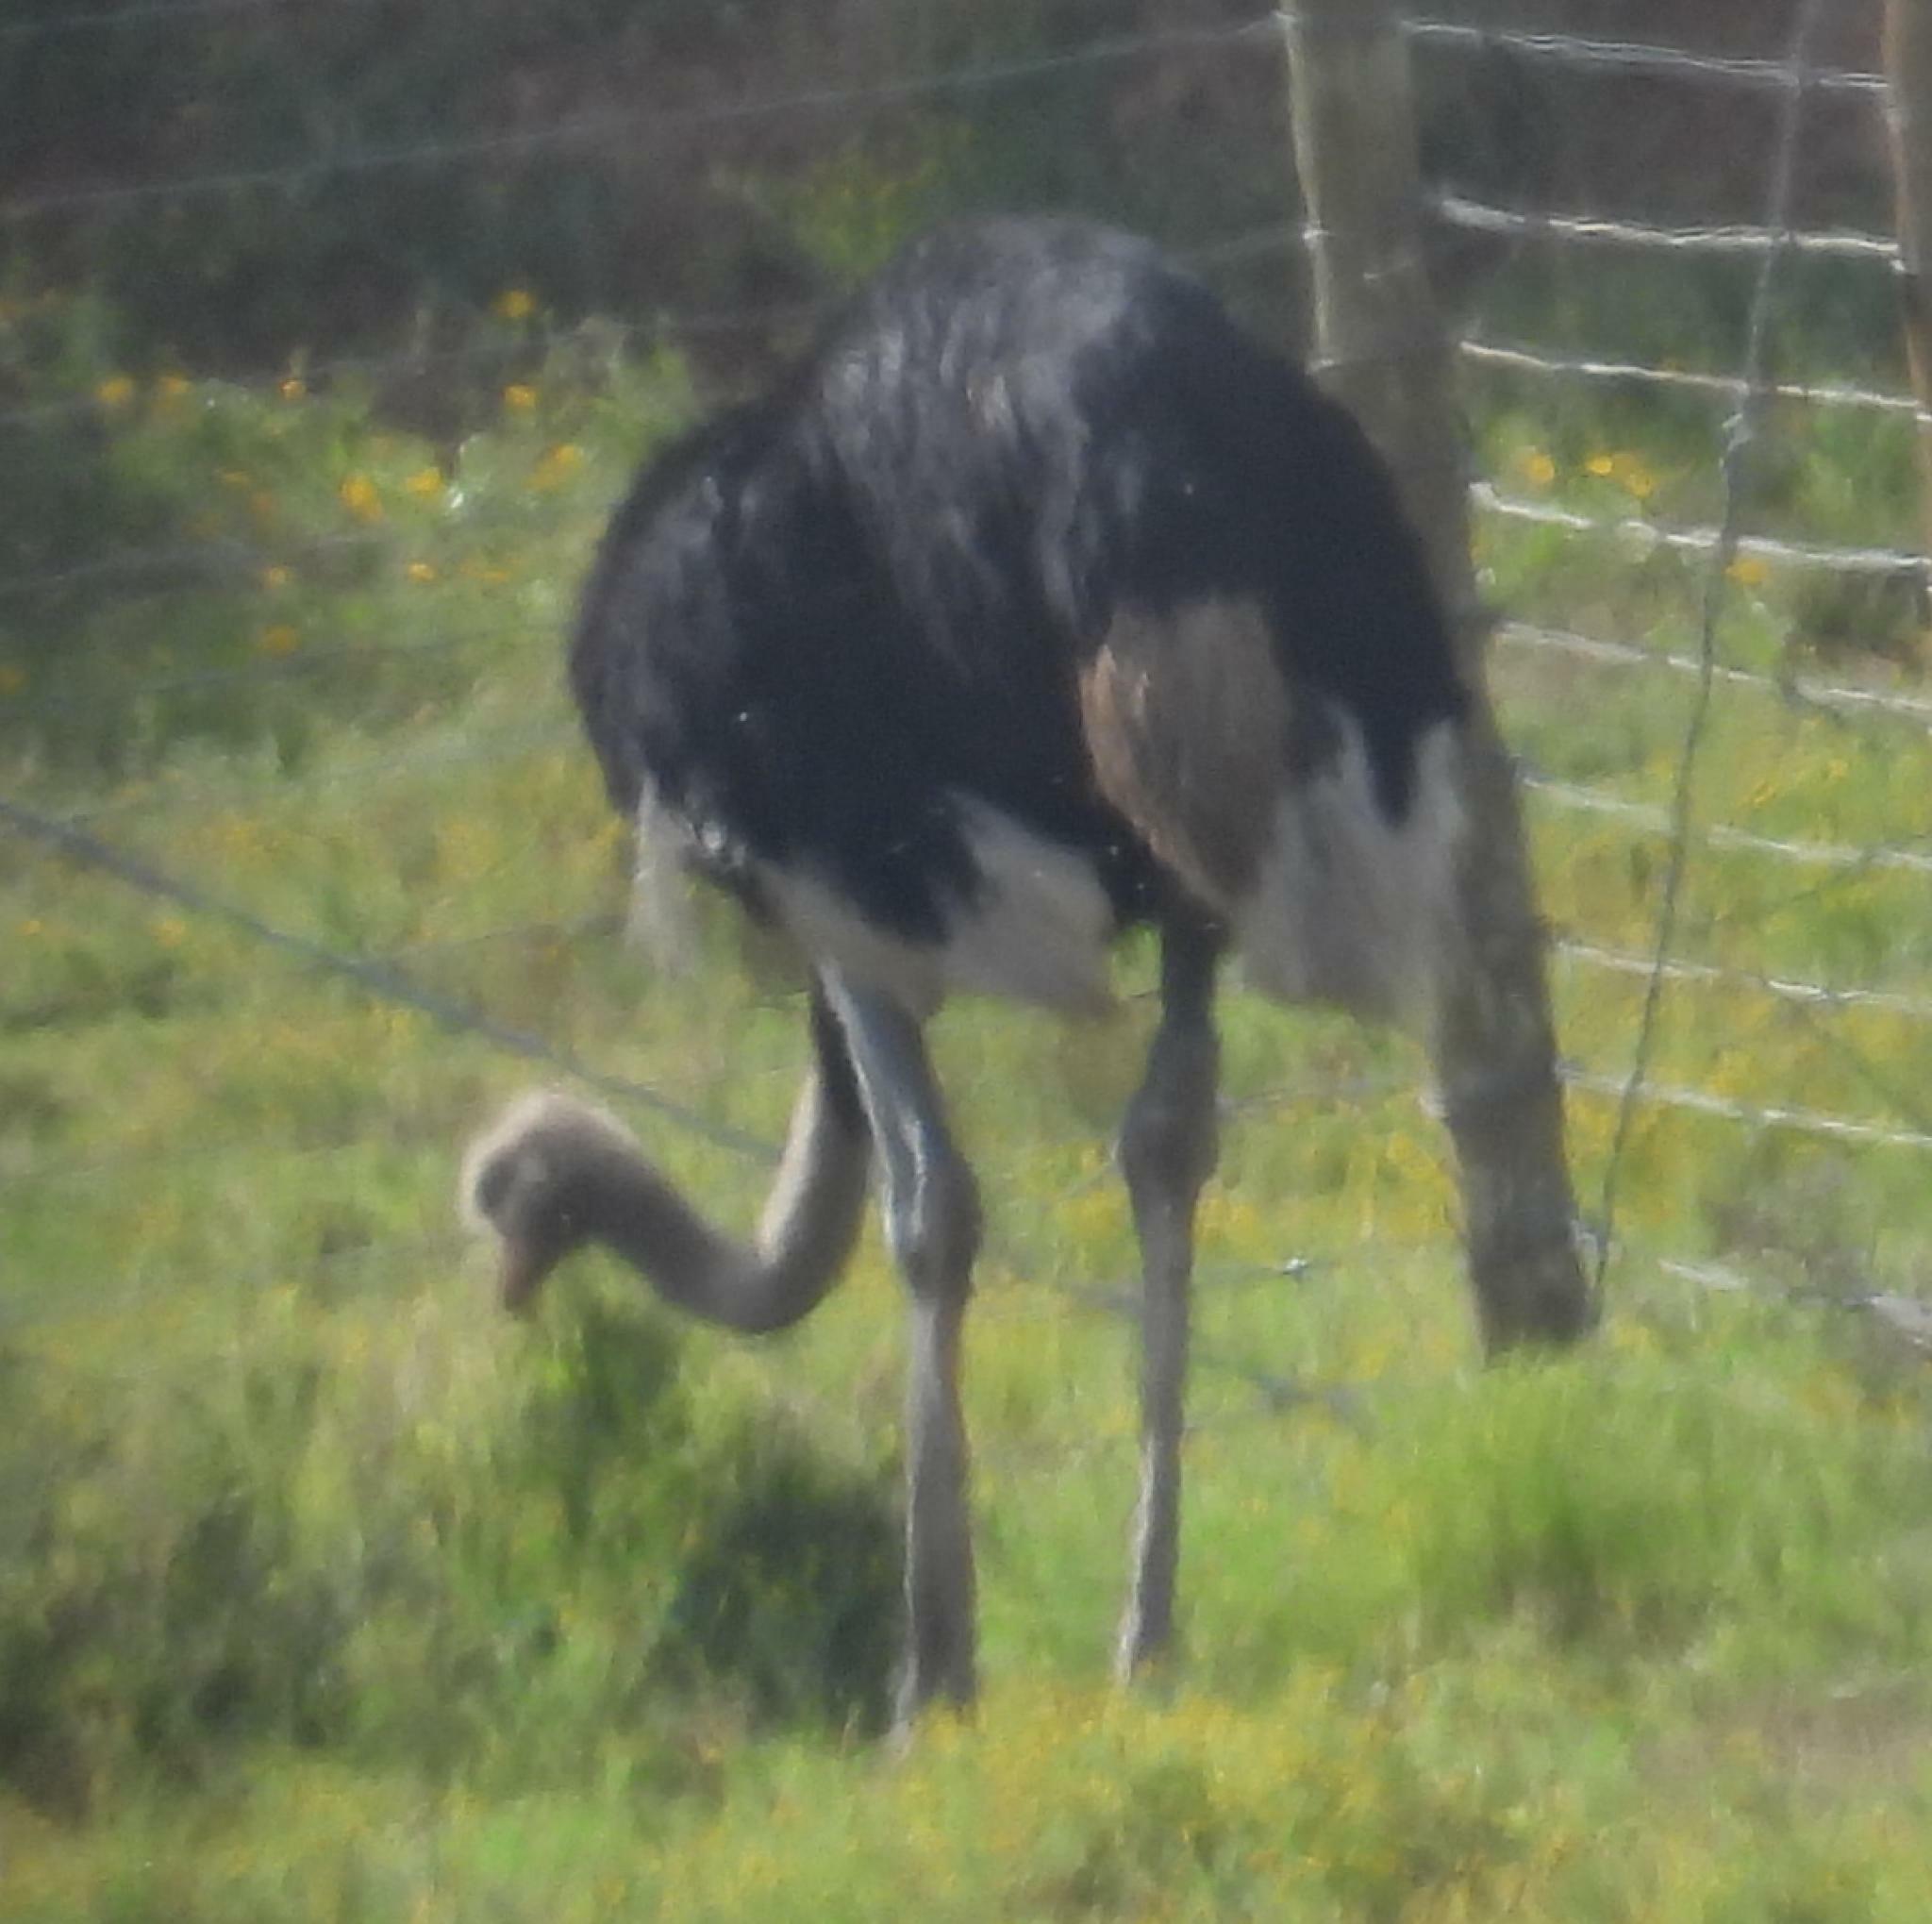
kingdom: Animalia
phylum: Chordata
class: Aves
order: Struthioniformes
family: Struthionidae
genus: Struthio
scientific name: Struthio camelus
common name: Common ostrich
